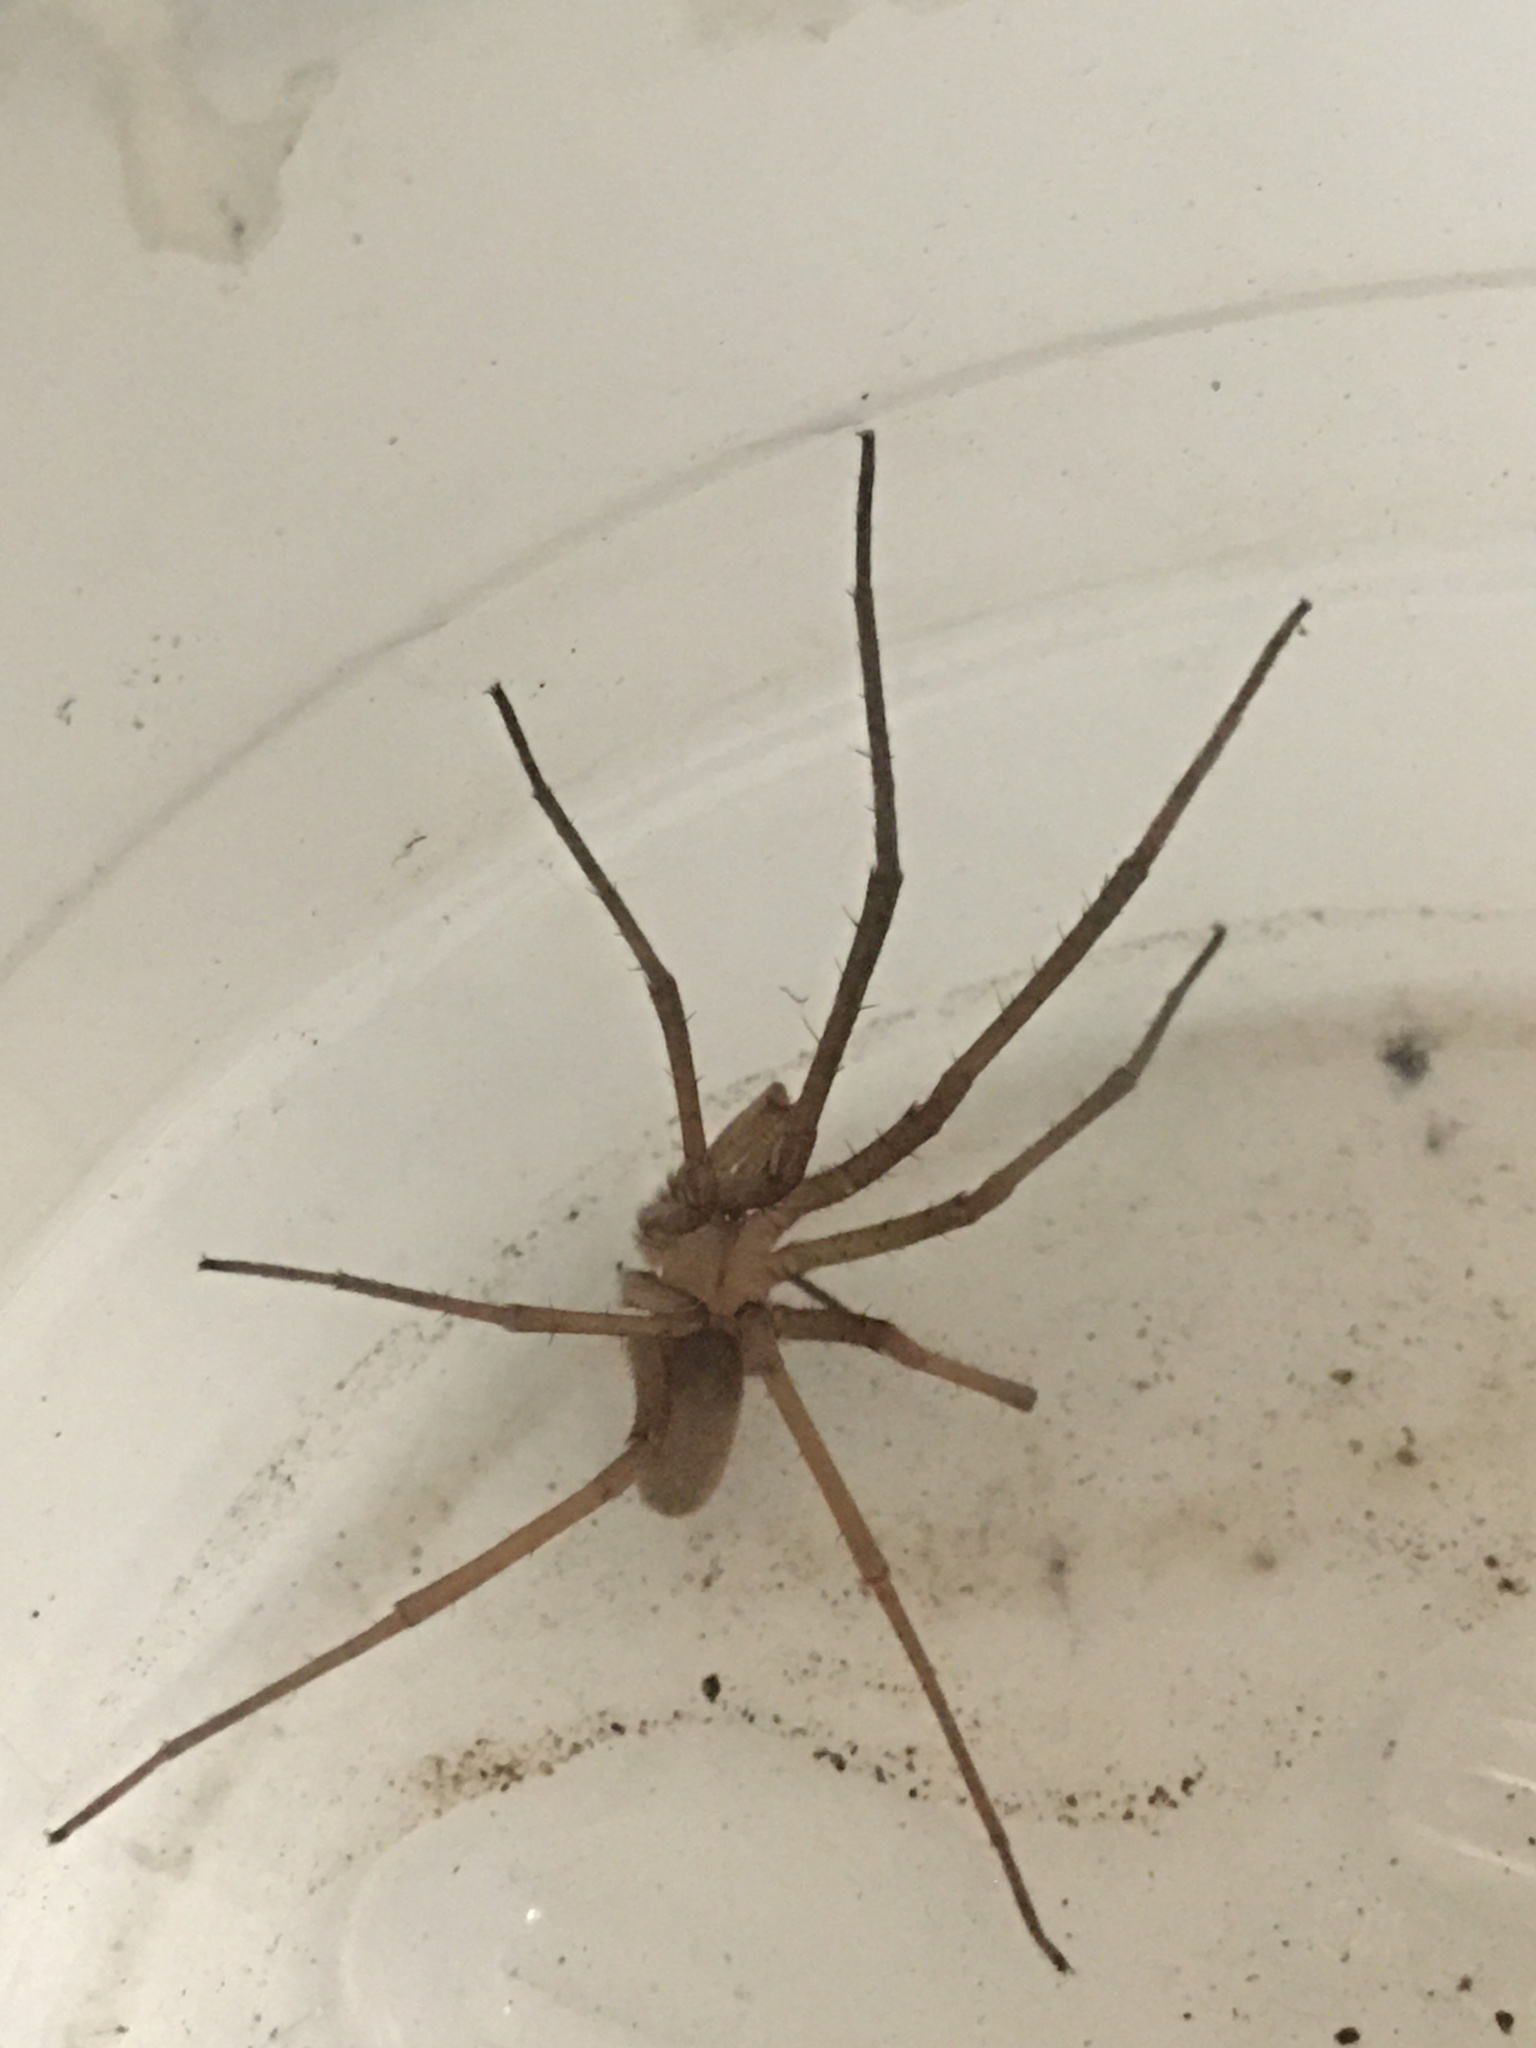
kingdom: Animalia
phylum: Arthropoda
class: Arachnida
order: Araneae
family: Filistatidae
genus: Kukulcania
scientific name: Kukulcania hibernalis
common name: Crevice weaver
